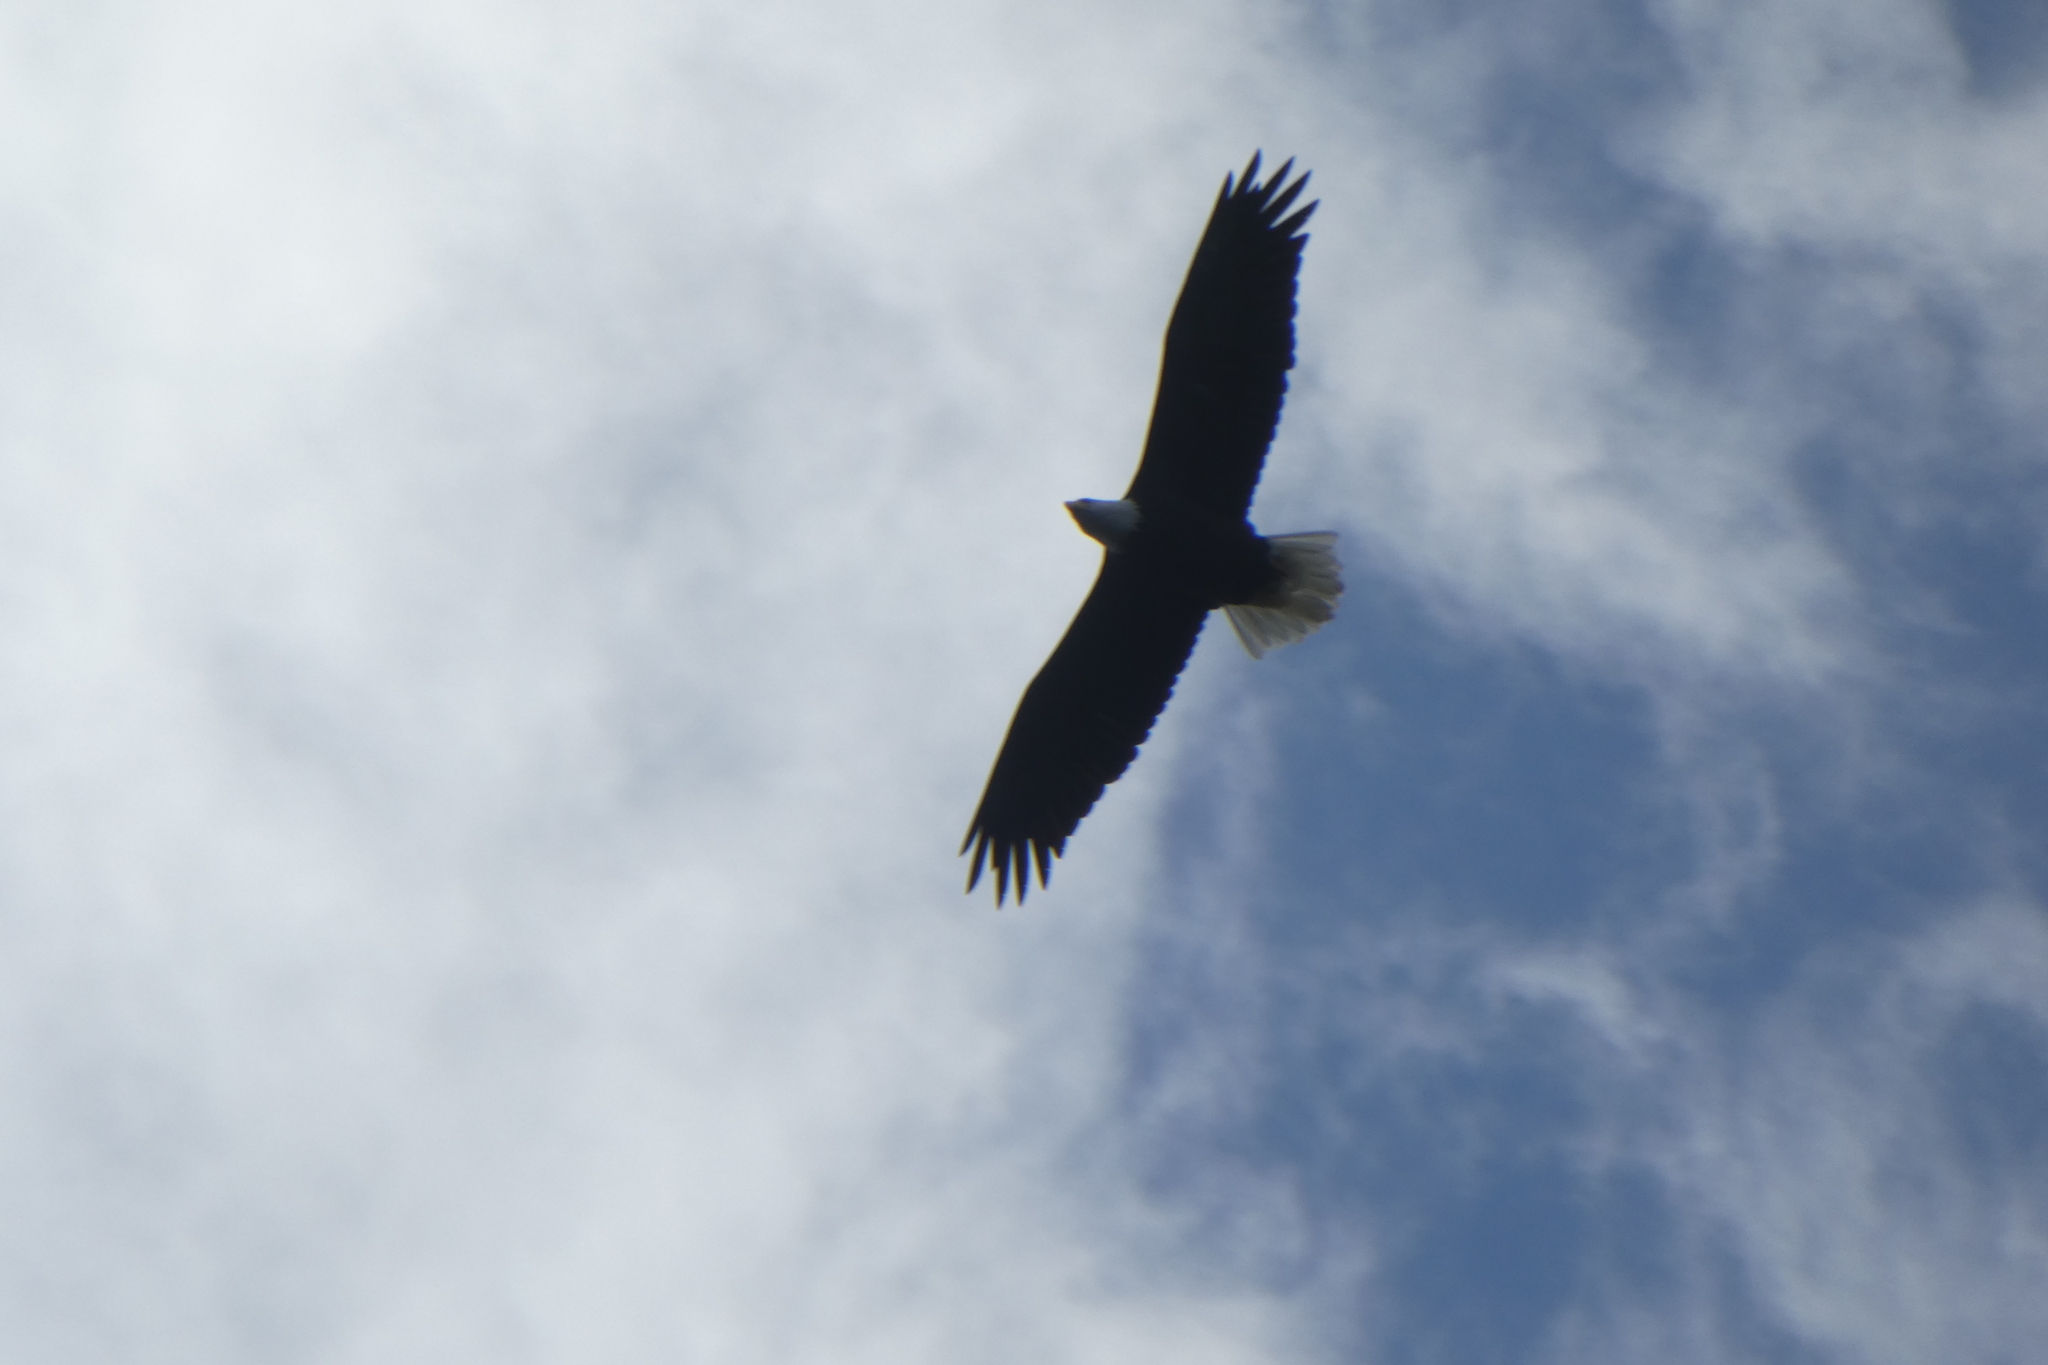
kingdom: Animalia
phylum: Chordata
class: Aves
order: Accipitriformes
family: Accipitridae
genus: Haliaeetus
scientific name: Haliaeetus leucocephalus
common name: Bald eagle
